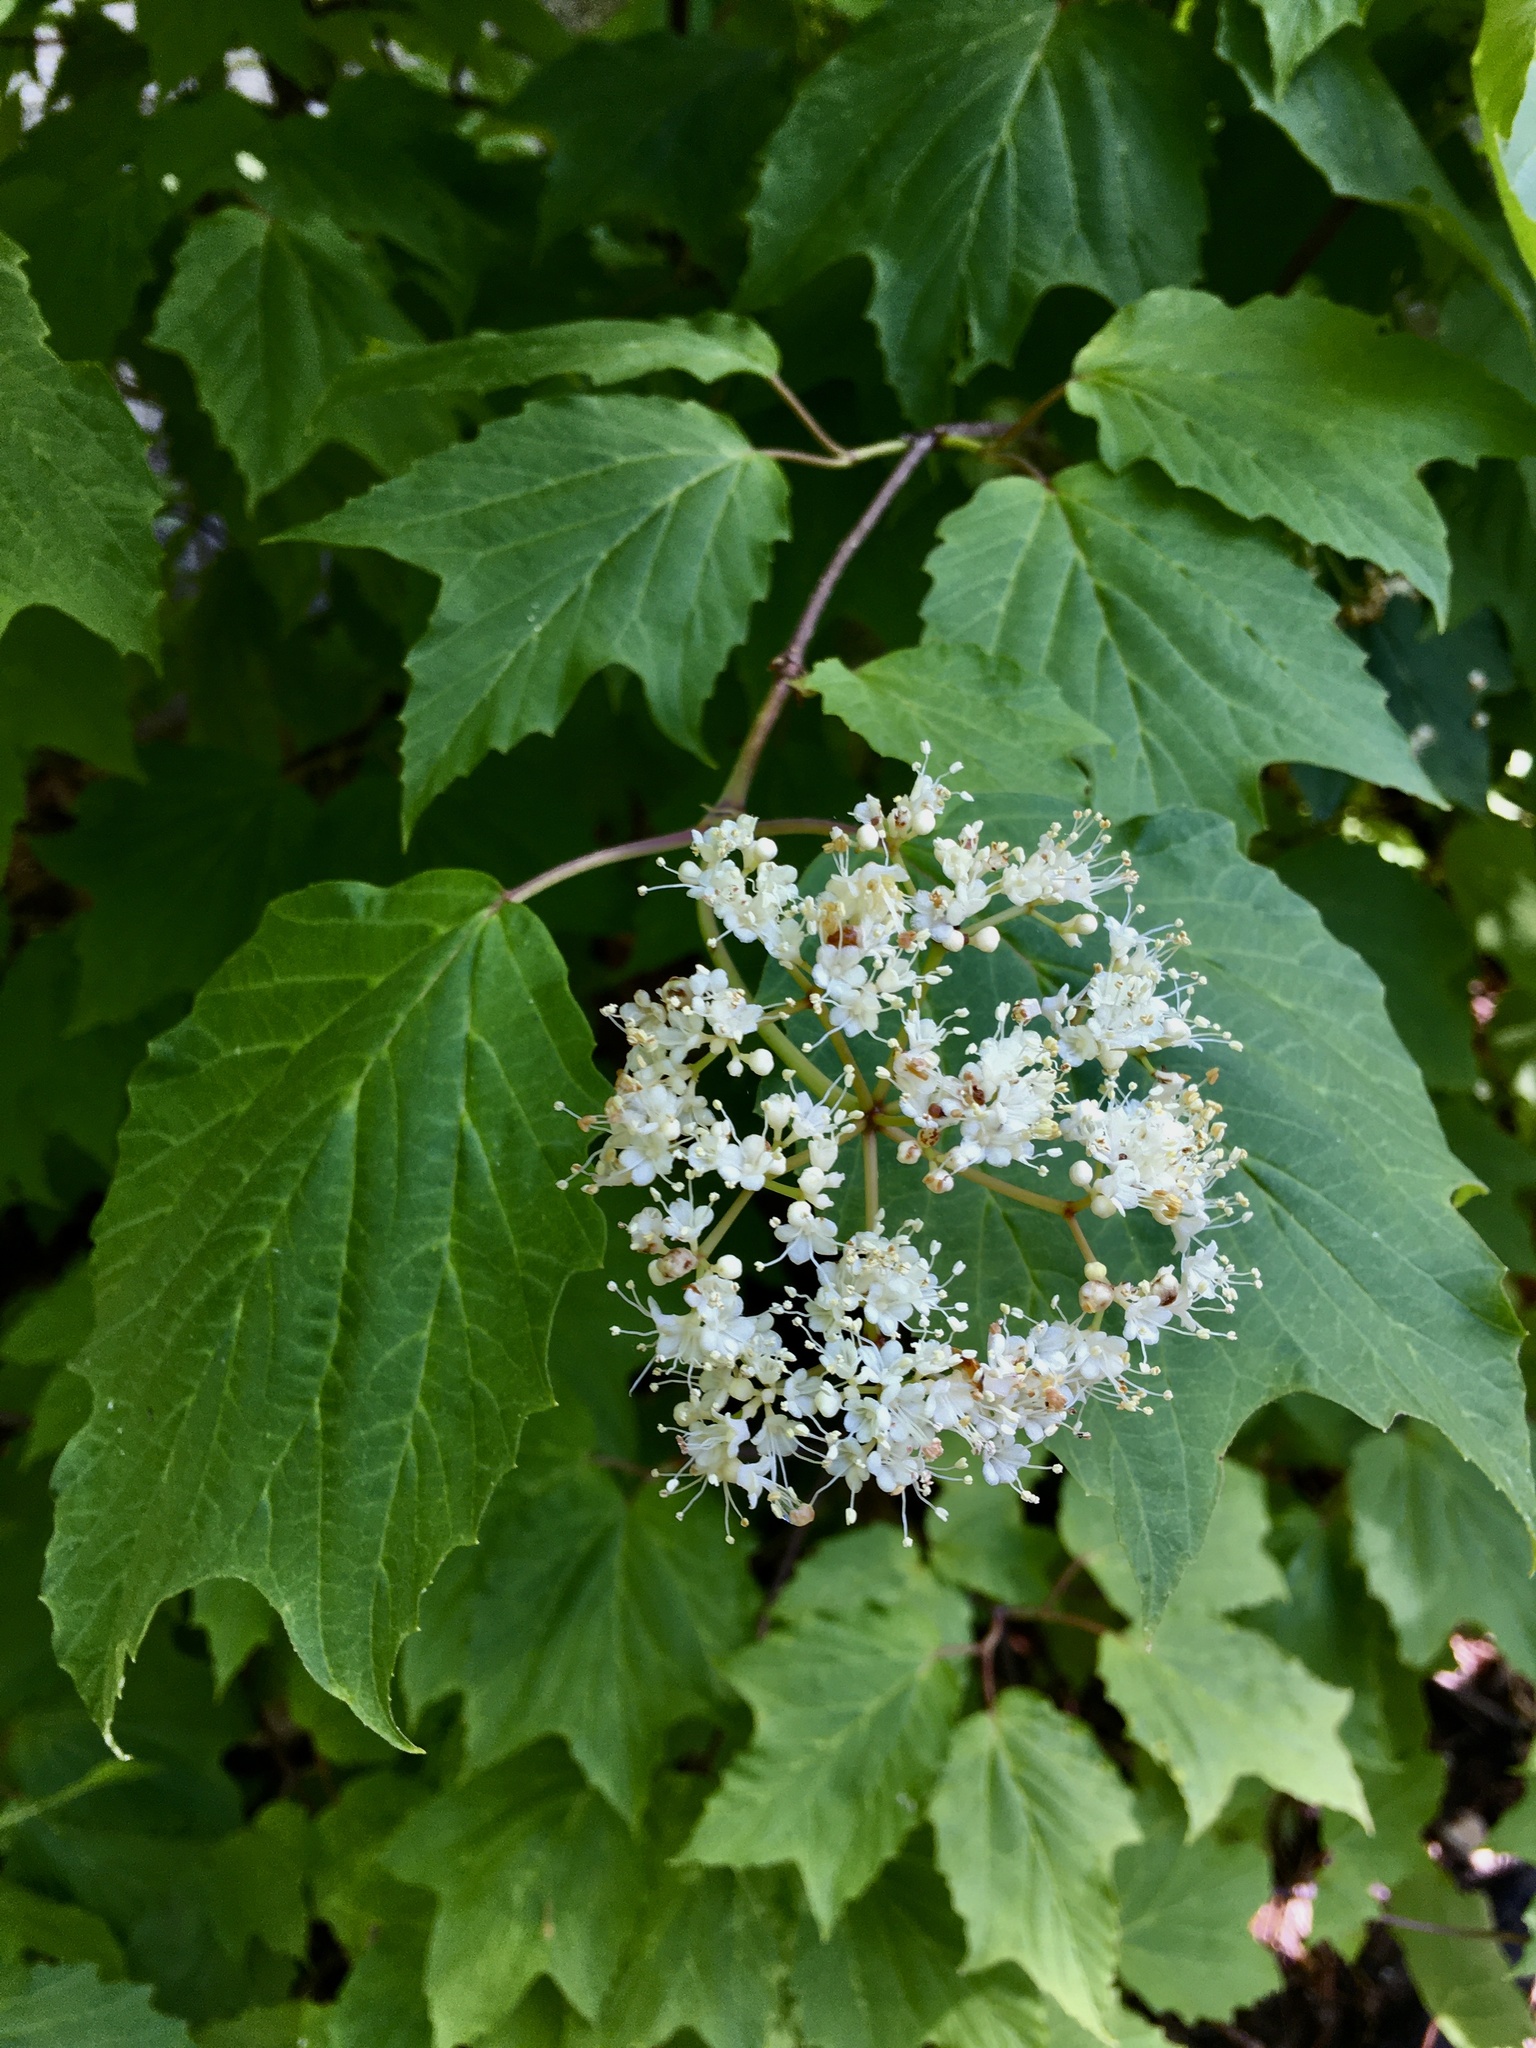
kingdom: Plantae
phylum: Tracheophyta
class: Magnoliopsida
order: Dipsacales
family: Viburnaceae
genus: Viburnum
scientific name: Viburnum acerifolium
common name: Dockmackie
